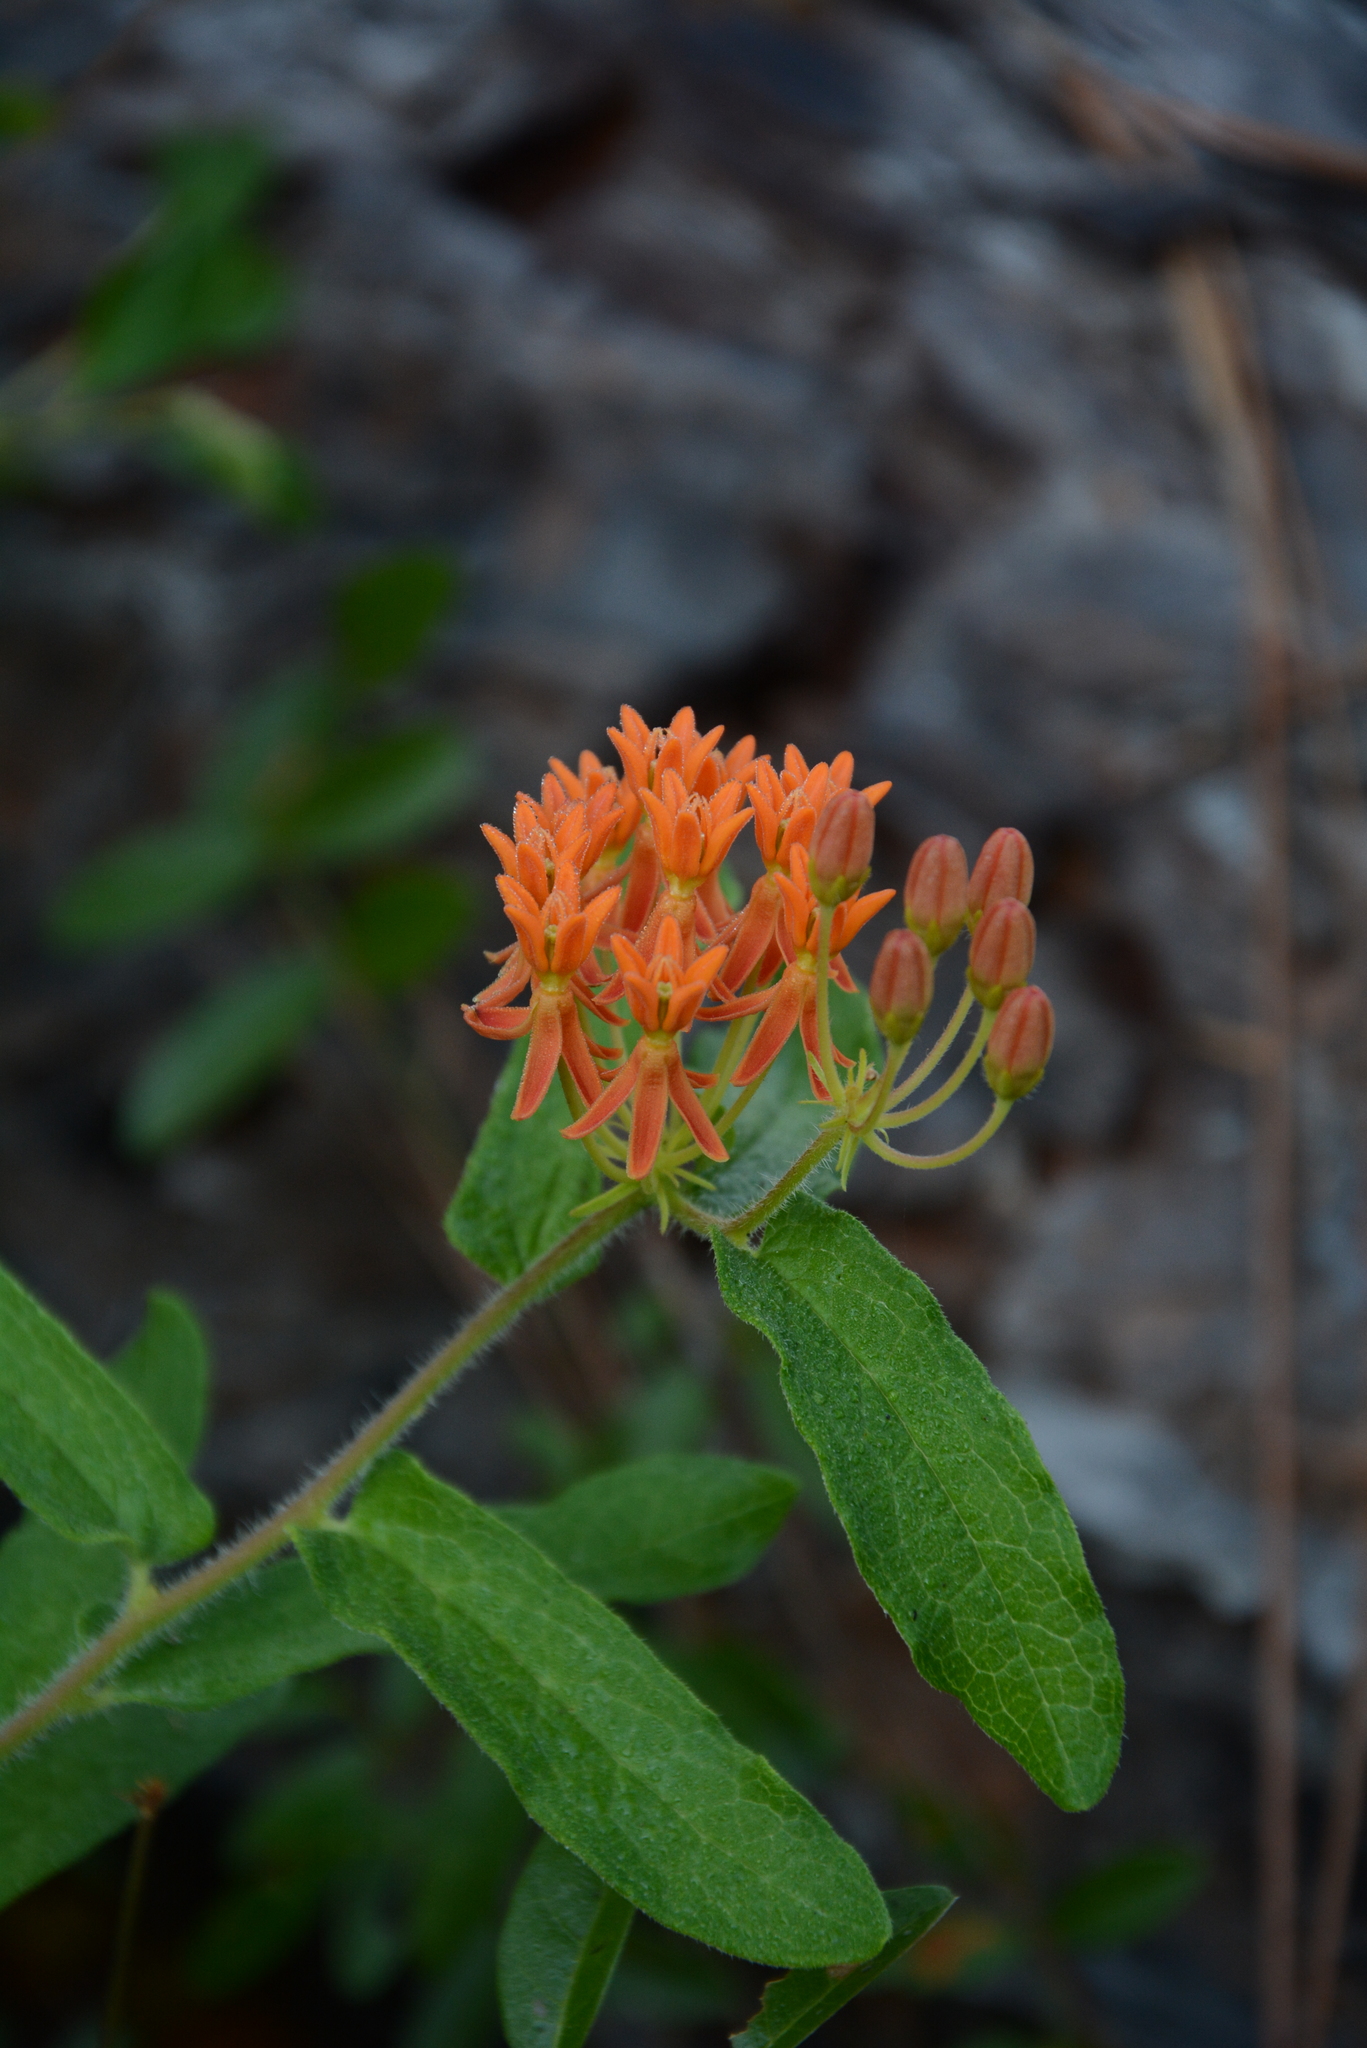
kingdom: Plantae
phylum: Tracheophyta
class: Magnoliopsida
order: Gentianales
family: Apocynaceae
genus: Asclepias
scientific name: Asclepias tuberosa
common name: Butterfly milkweed
